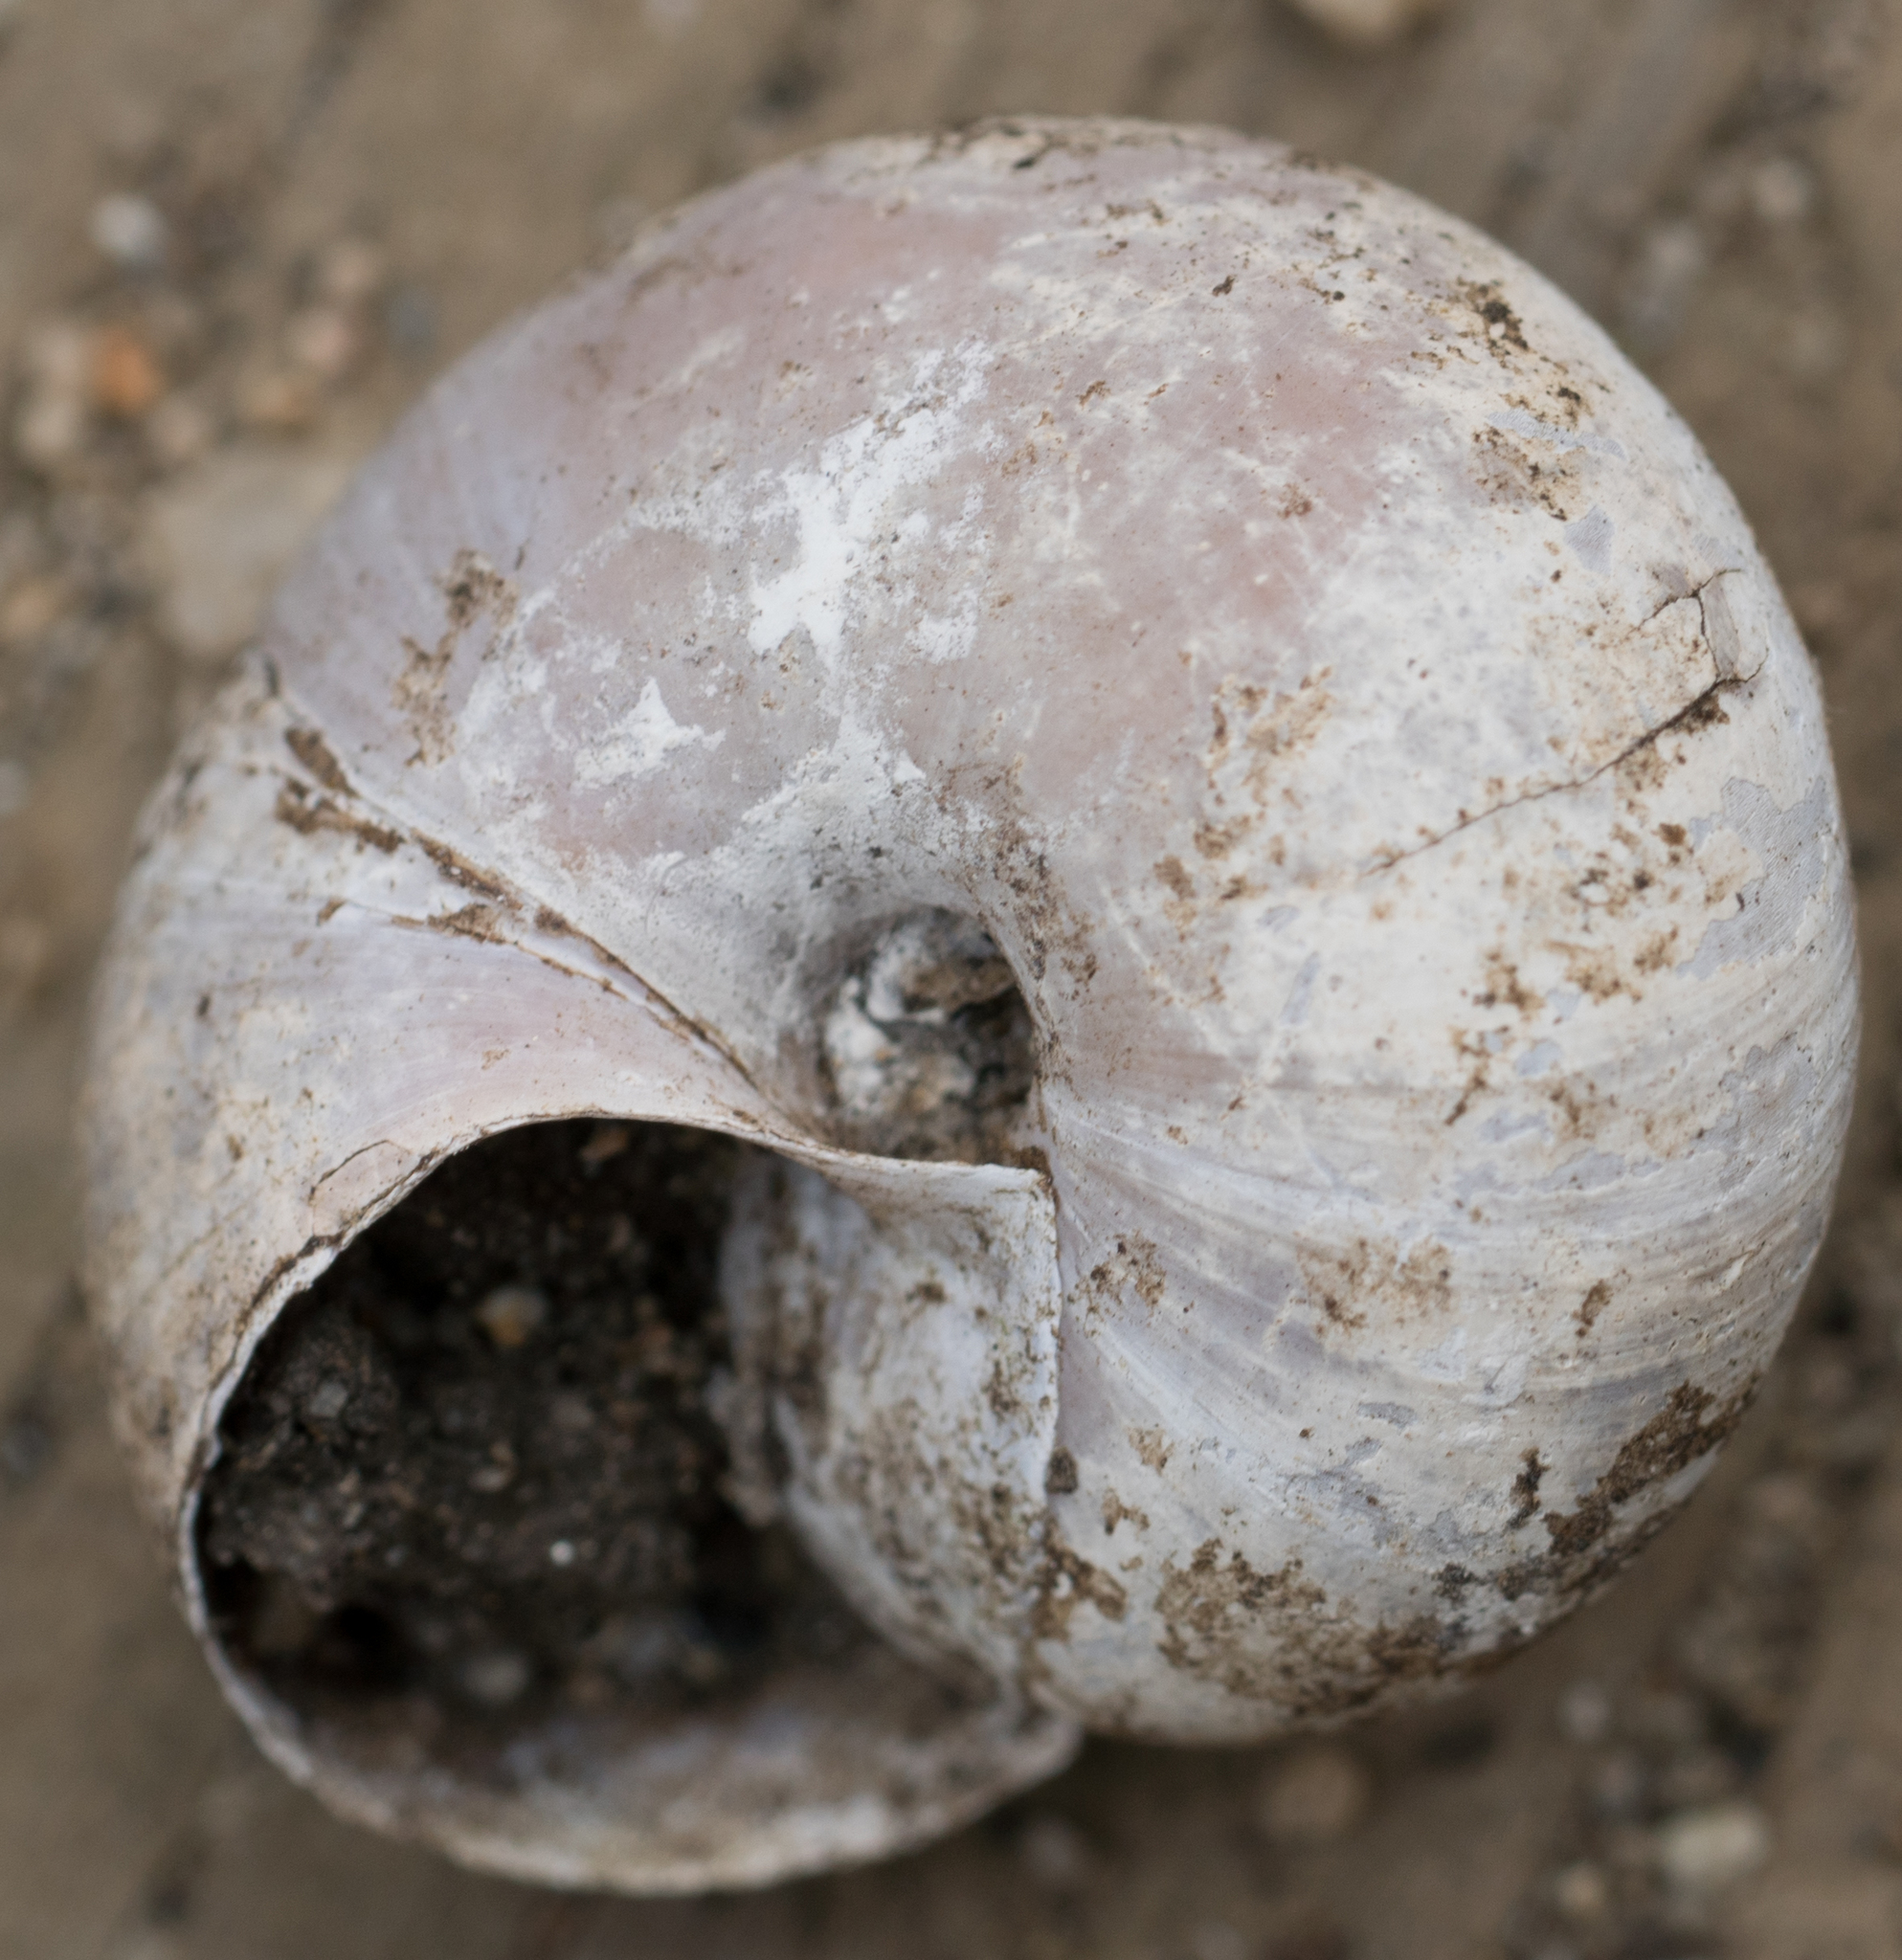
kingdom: Animalia
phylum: Mollusca
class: Gastropoda
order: Stylommatophora
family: Xanthonychidae
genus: Helminthoglypta
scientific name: Helminthoglypta dupetithouarsi
